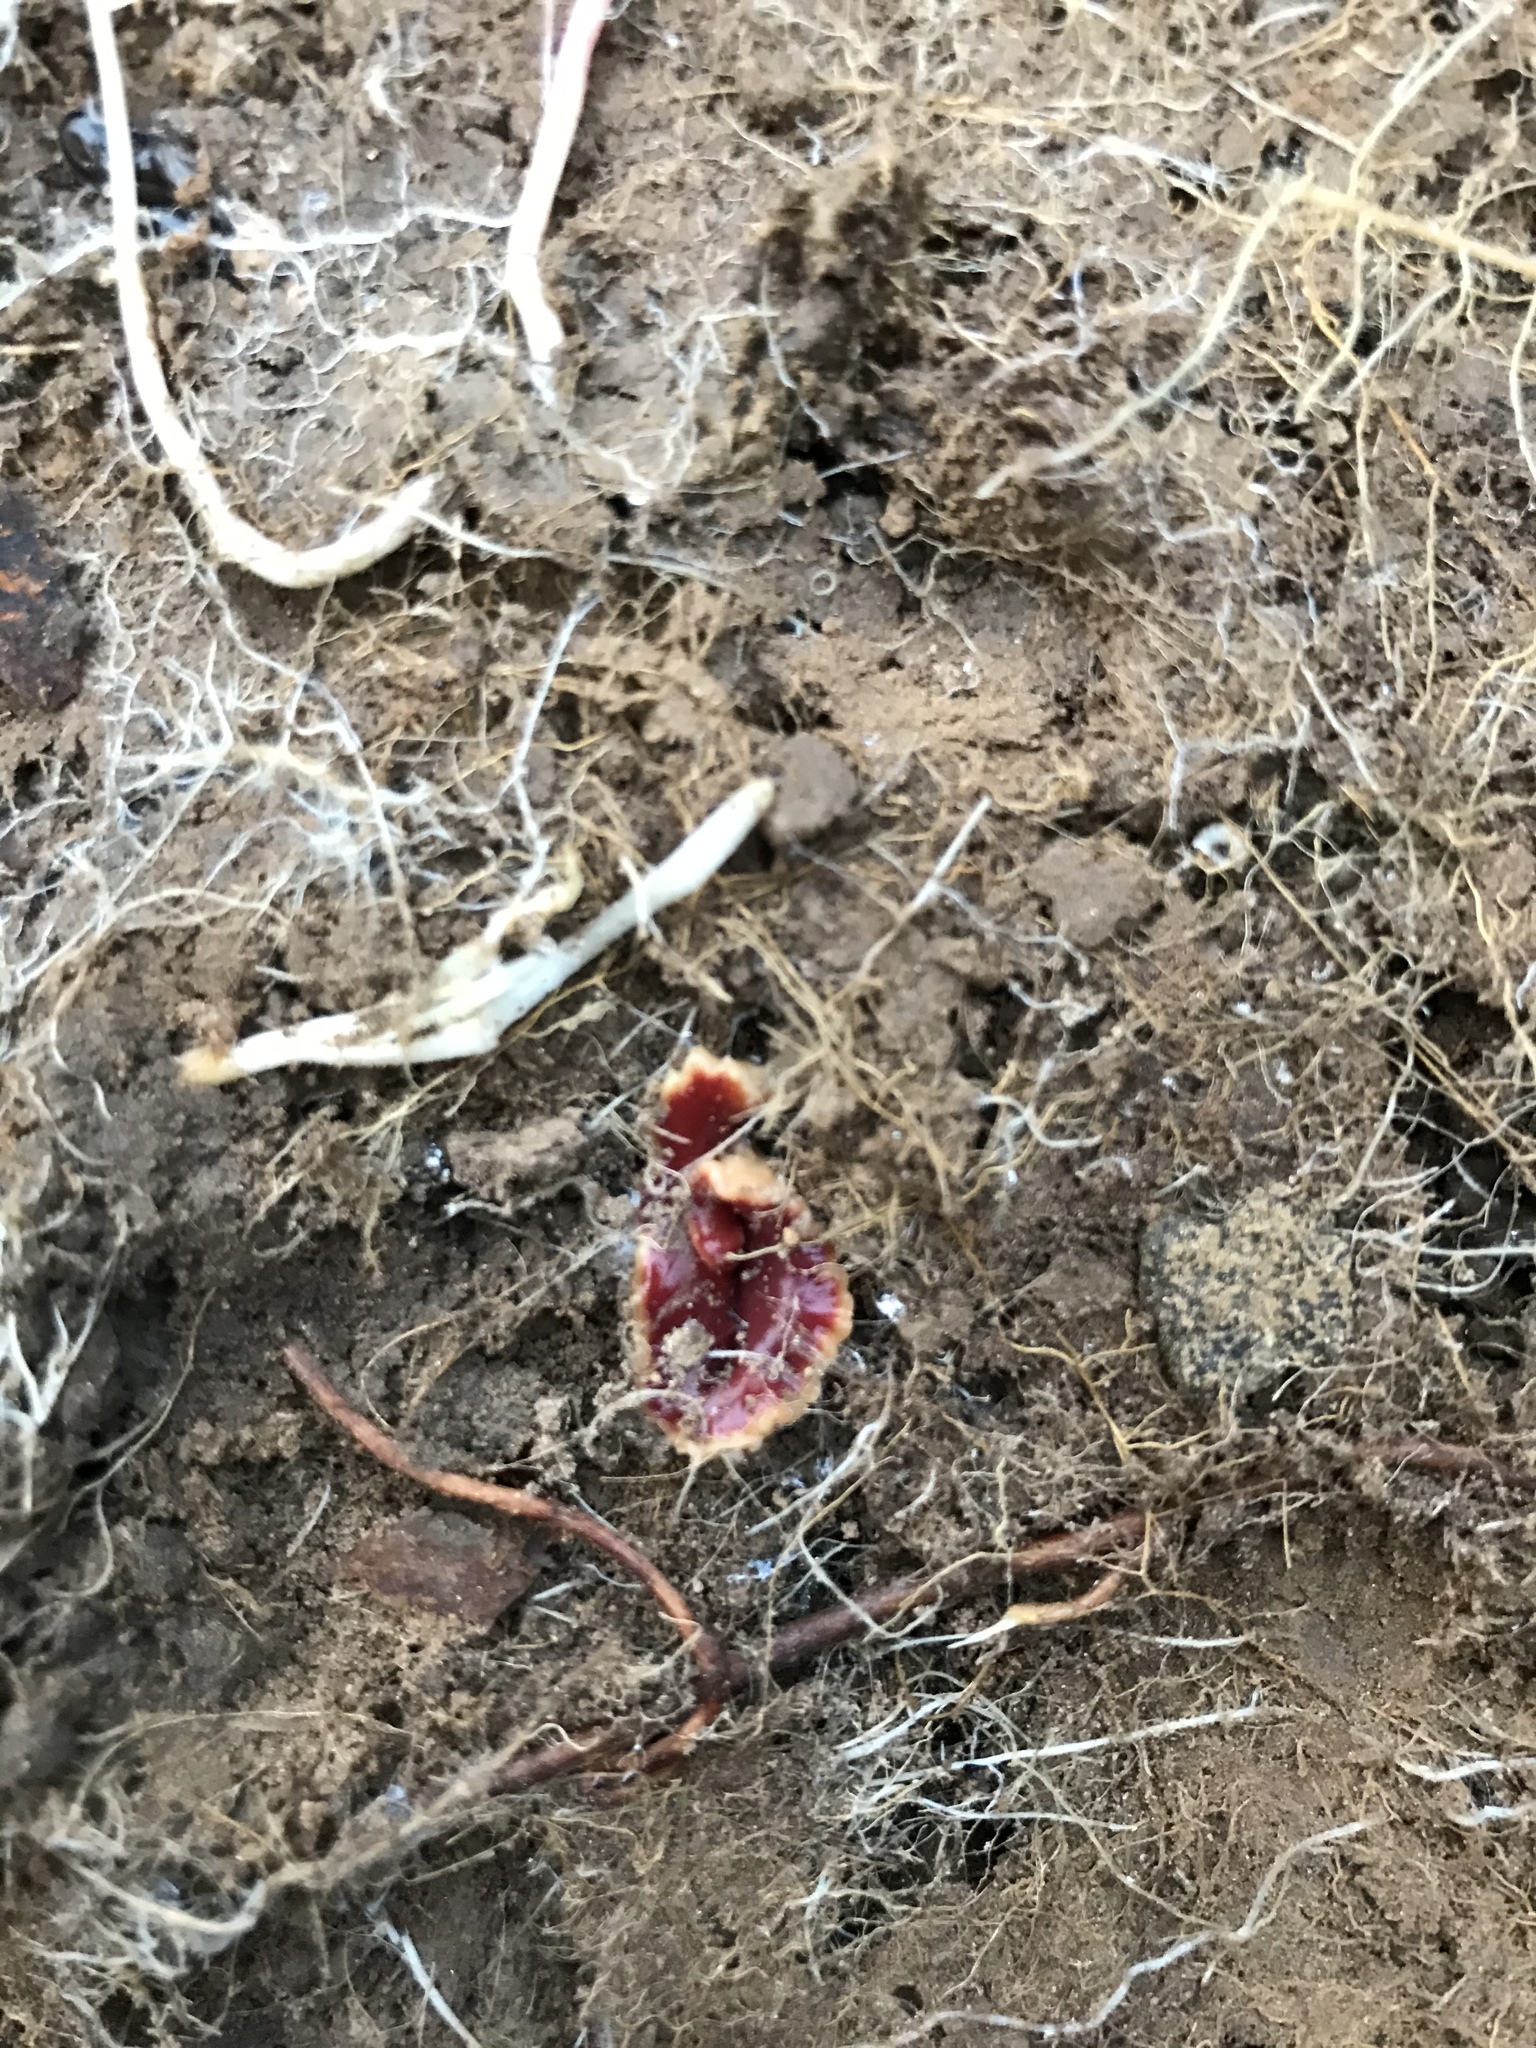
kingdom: Animalia
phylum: Platyhelminthes
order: Tricladida
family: Geoplanidae
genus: Arthurdendyus
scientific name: Arthurdendyus testaceus
